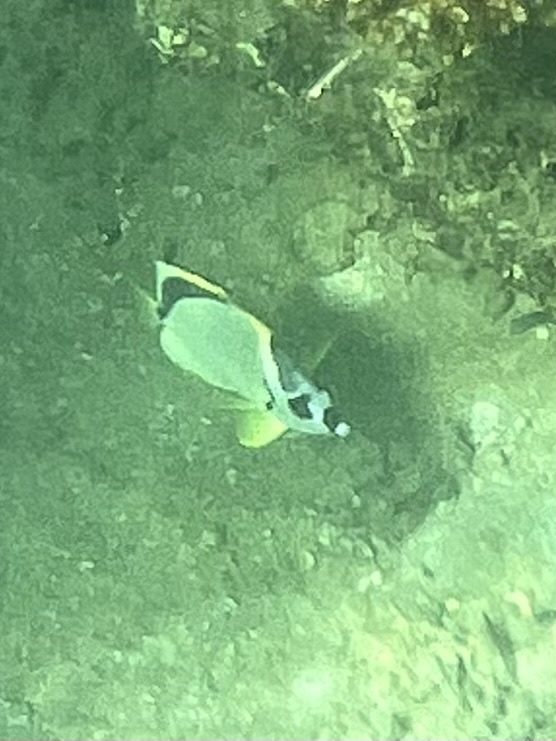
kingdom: Animalia
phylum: Chordata
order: Perciformes
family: Chaetodontidae
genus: Johnrandallia
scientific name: Johnrandallia nigrirostris
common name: Barberfish
